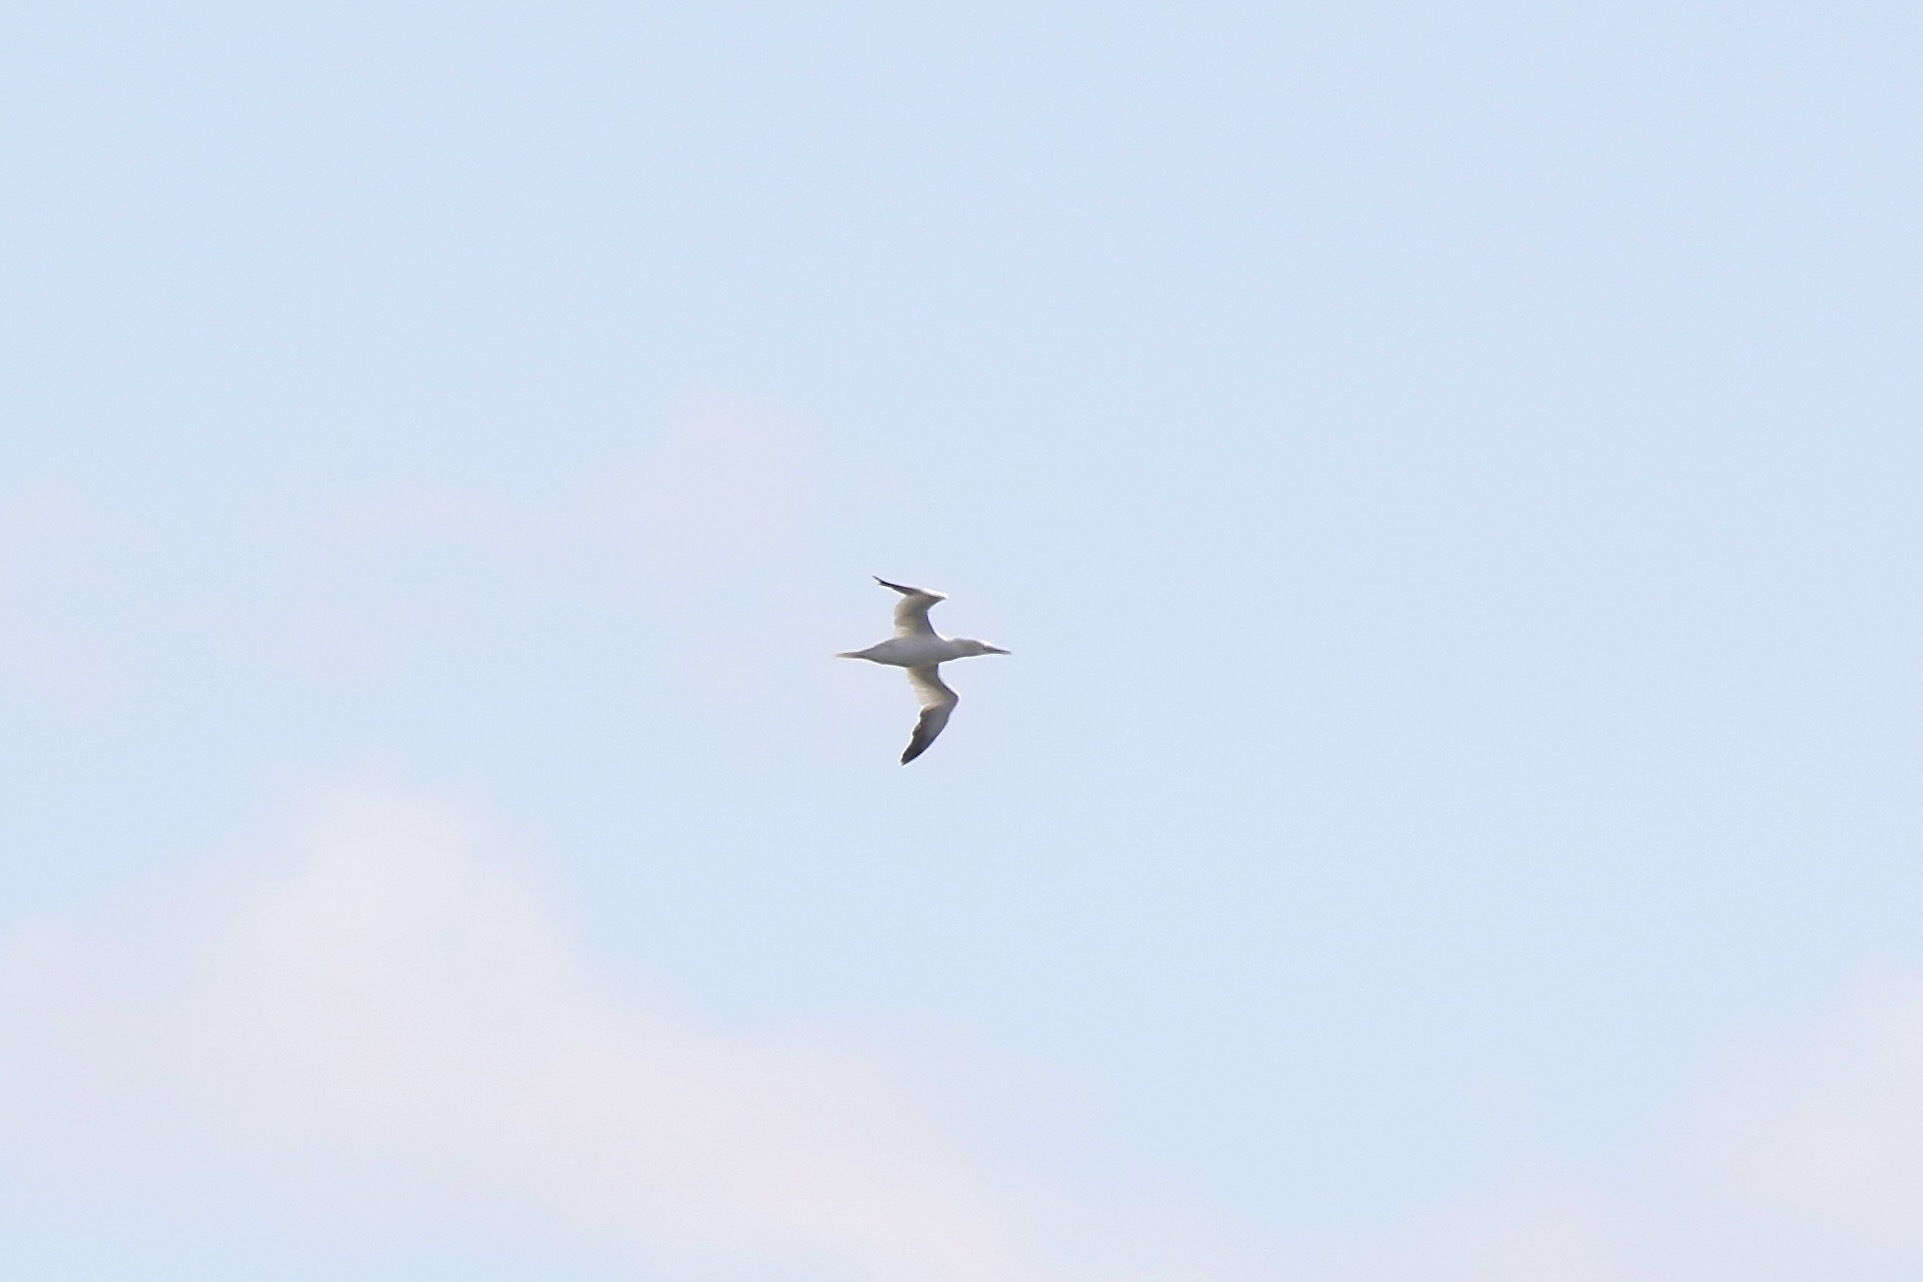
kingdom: Animalia
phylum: Chordata
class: Aves
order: Suliformes
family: Sulidae
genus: Morus
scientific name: Morus bassanus
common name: Northern gannet
